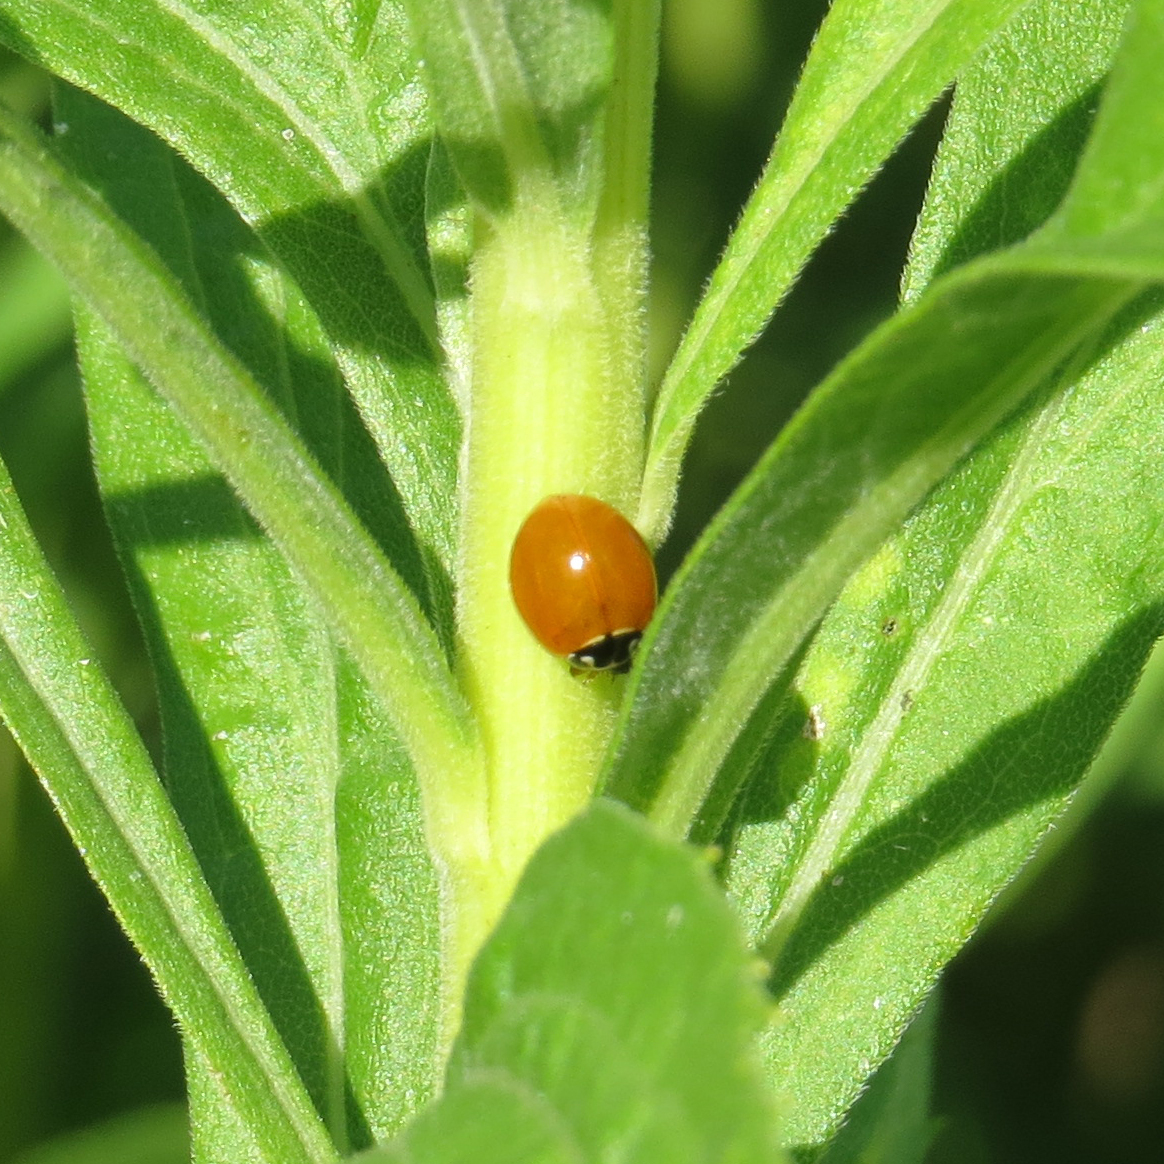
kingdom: Animalia
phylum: Arthropoda
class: Insecta
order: Coleoptera
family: Coccinellidae
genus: Cycloneda
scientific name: Cycloneda munda
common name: Polished lady beetle
